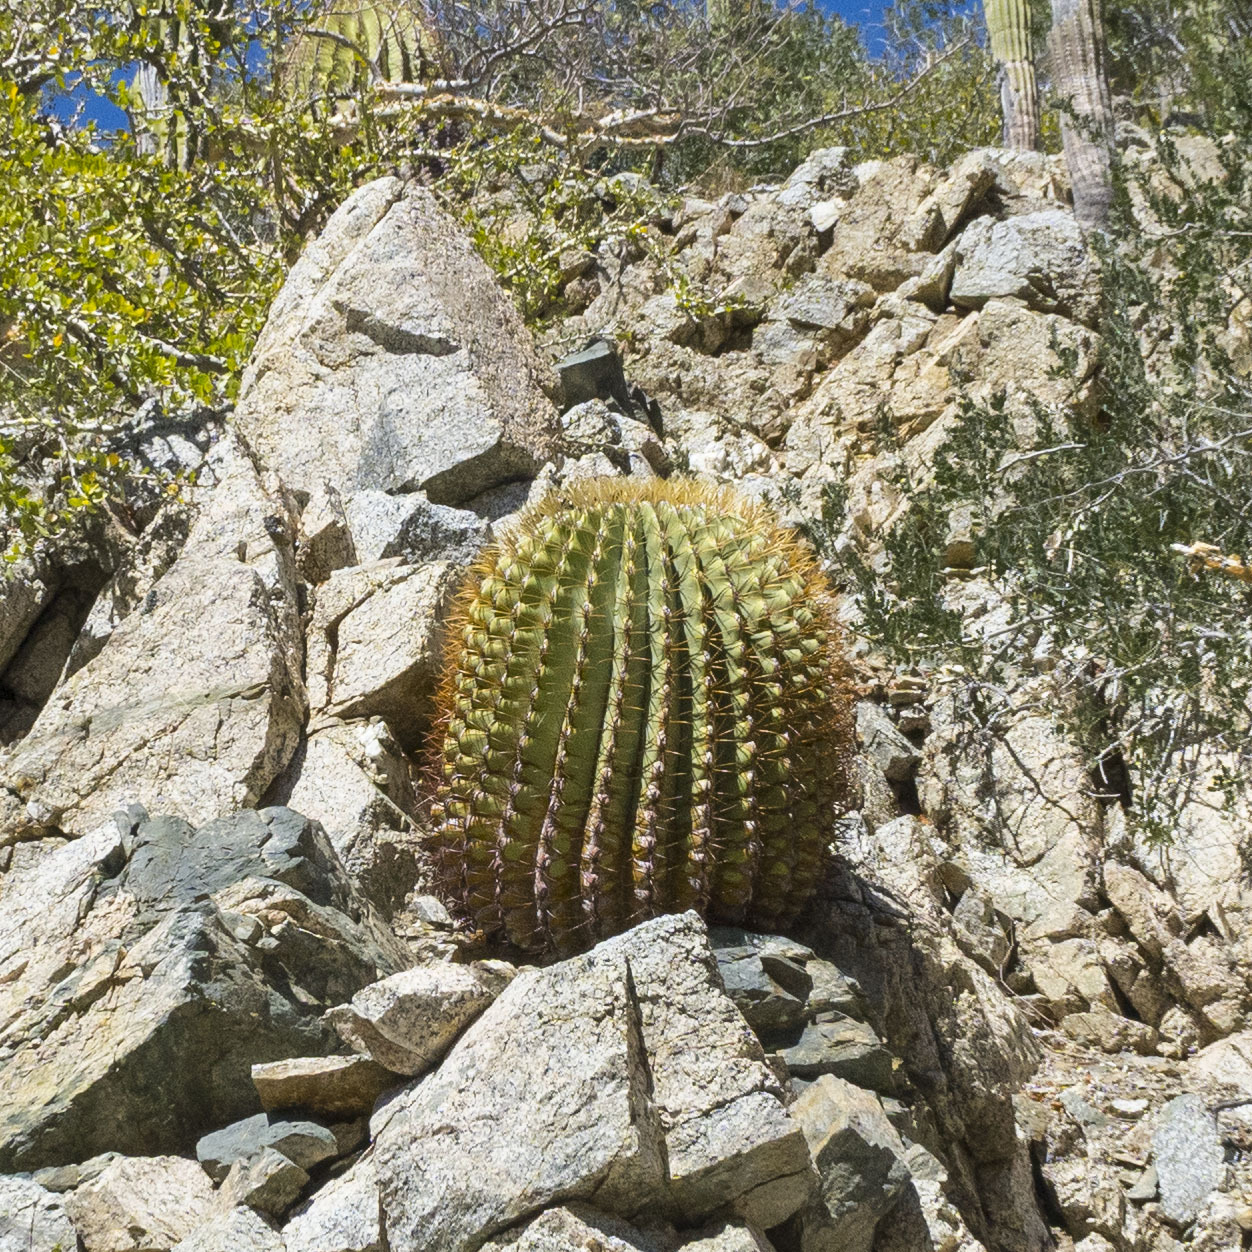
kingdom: Plantae
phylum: Tracheophyta
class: Magnoliopsida
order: Caryophyllales
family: Cactaceae
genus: Ferocactus
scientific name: Ferocactus diguetii
